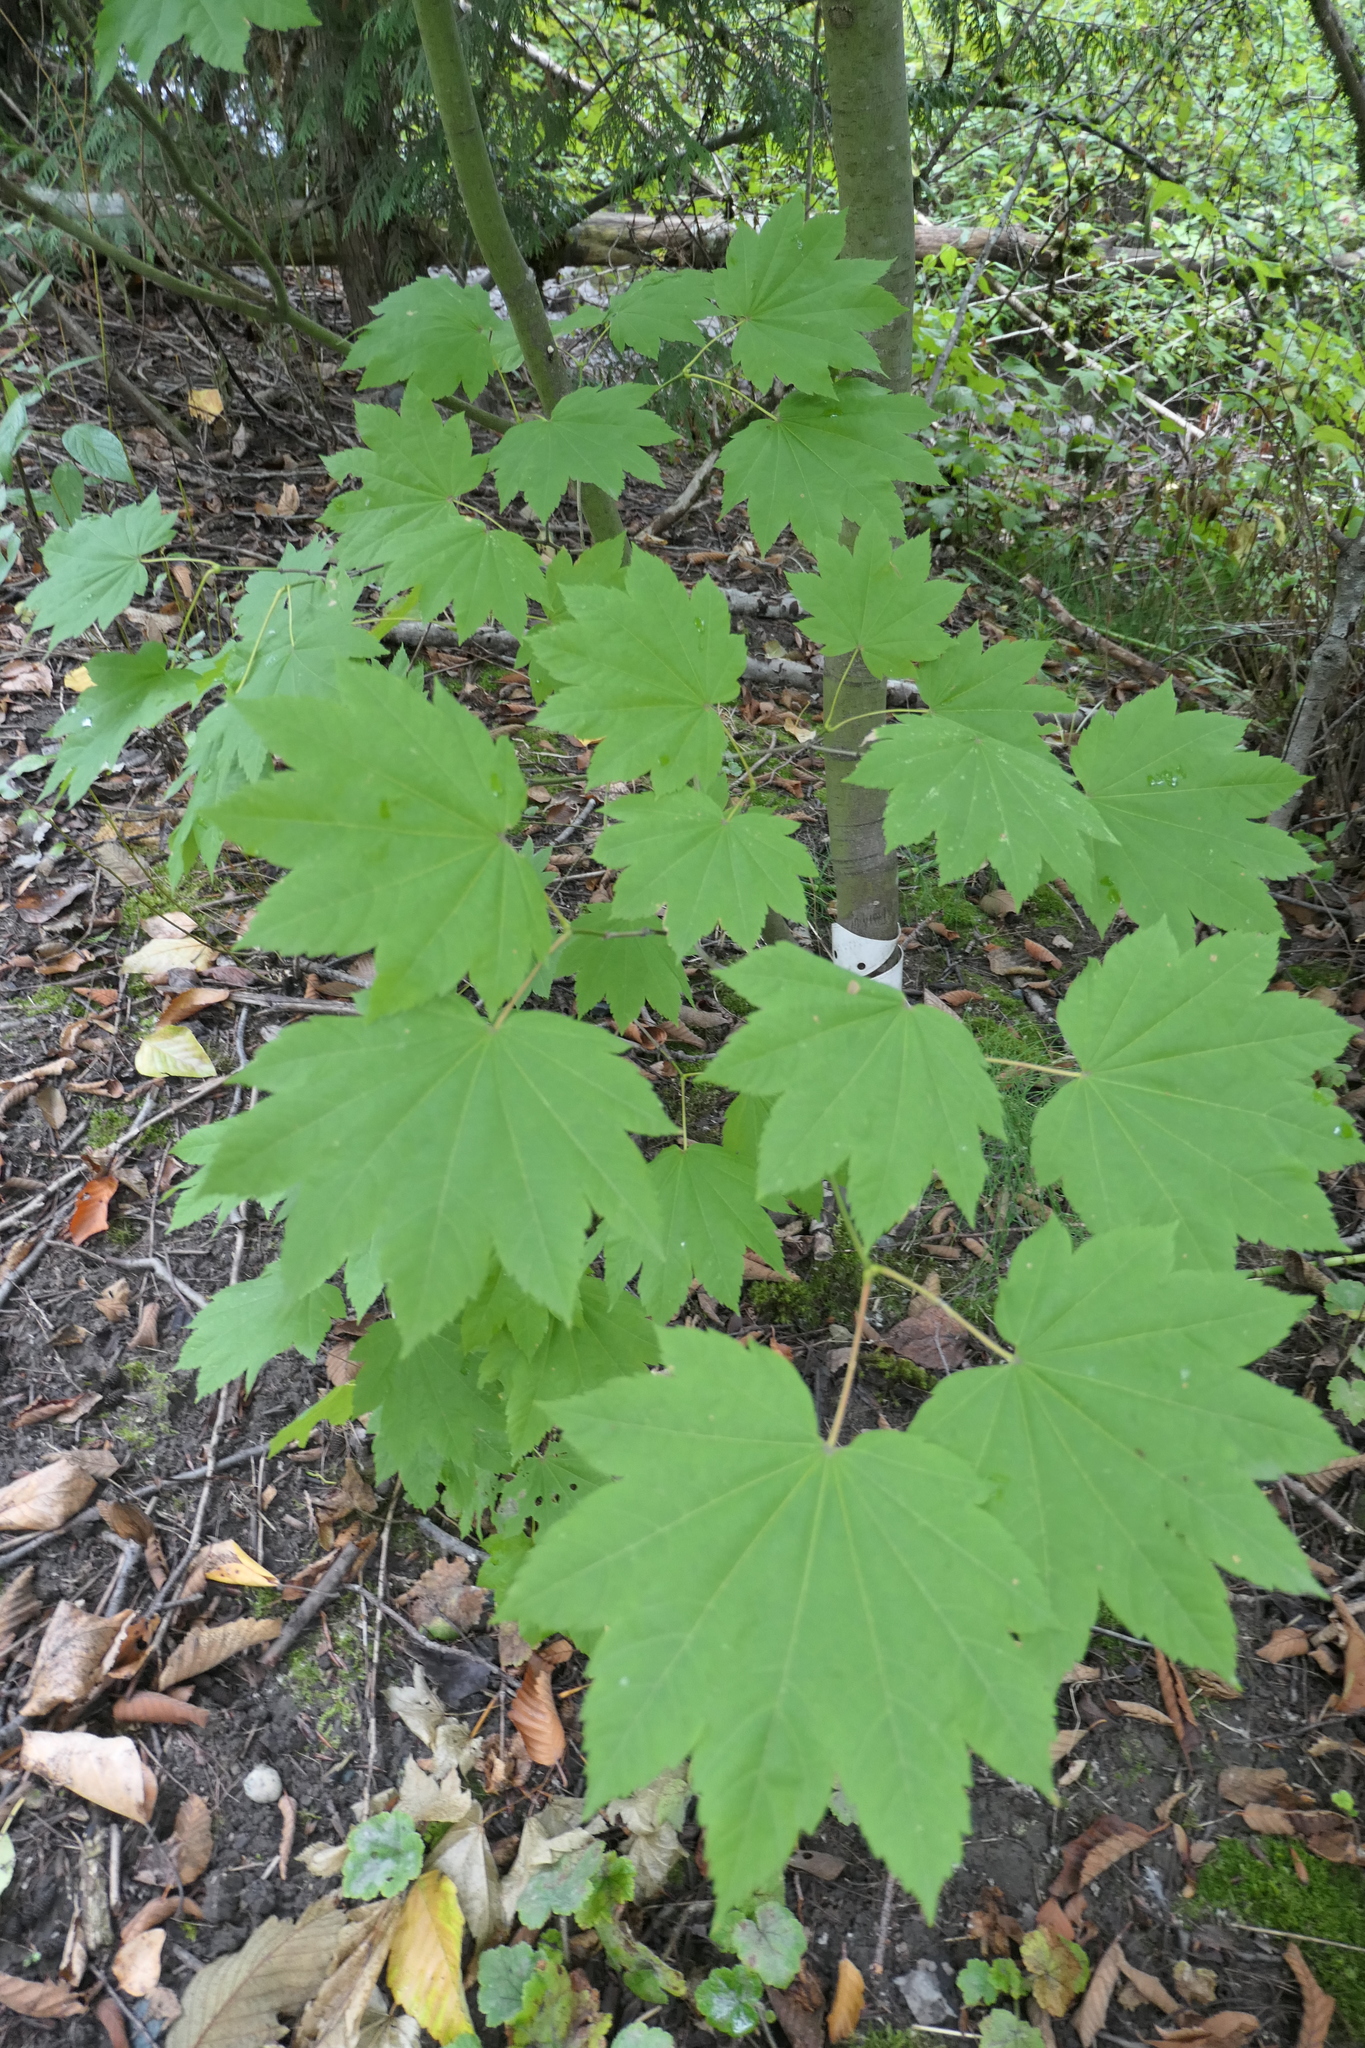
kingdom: Plantae
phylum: Tracheophyta
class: Magnoliopsida
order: Sapindales
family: Sapindaceae
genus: Acer
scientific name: Acer circinatum
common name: Vine maple
